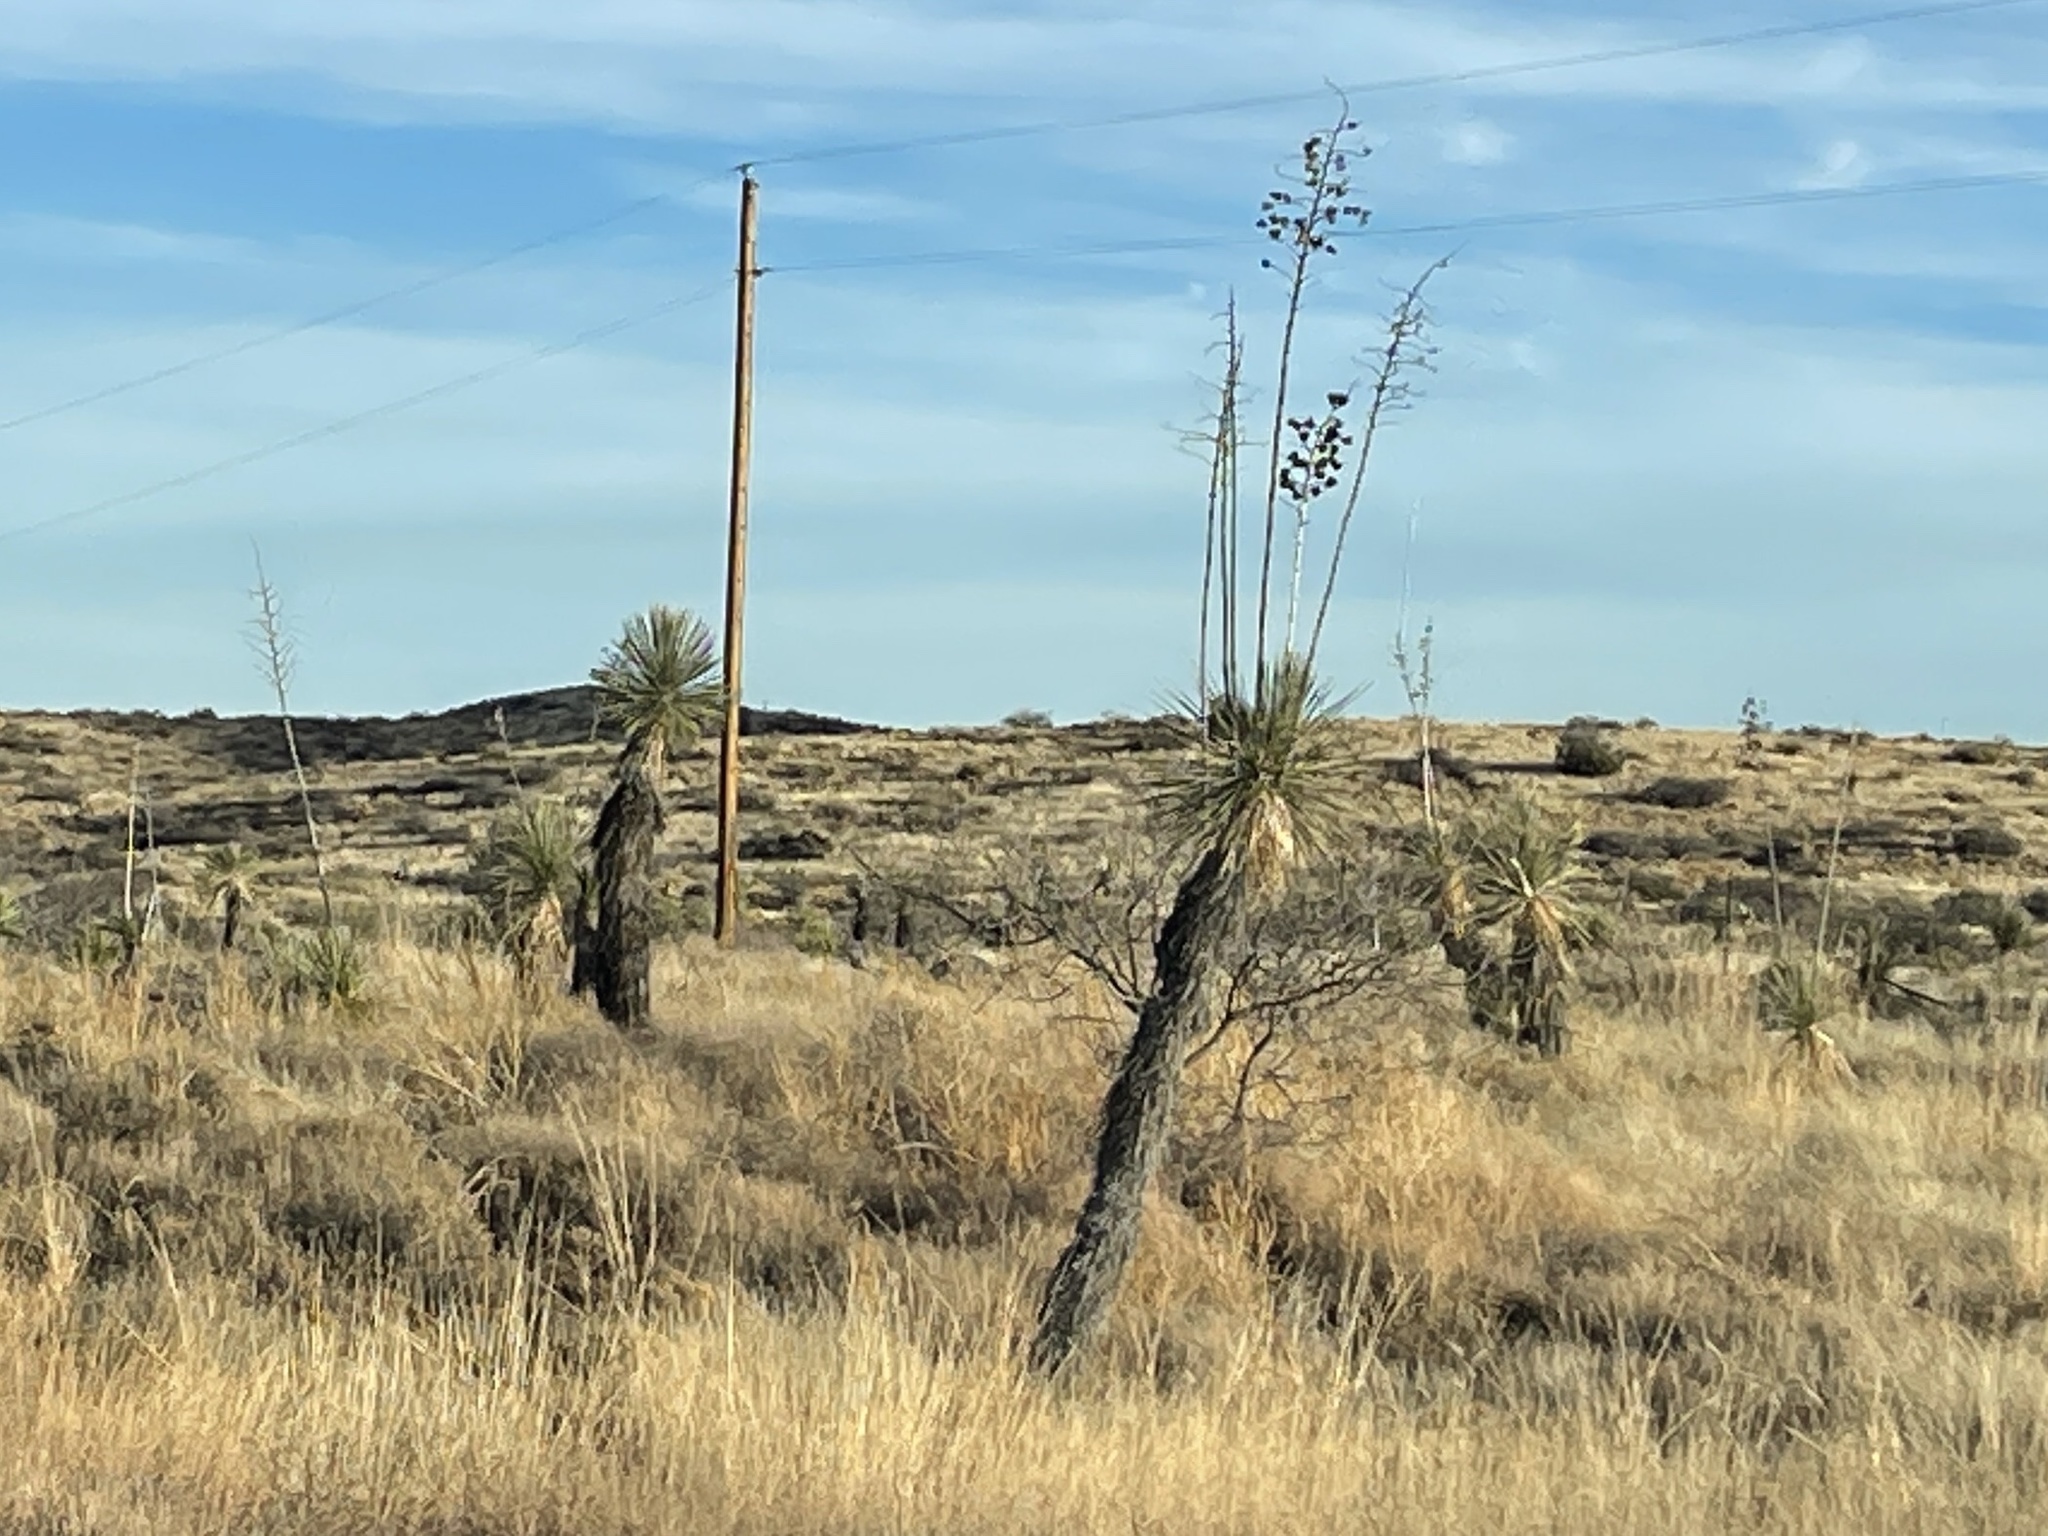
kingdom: Plantae
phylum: Tracheophyta
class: Liliopsida
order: Asparagales
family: Asparagaceae
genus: Yucca
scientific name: Yucca elata
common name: Palmella
